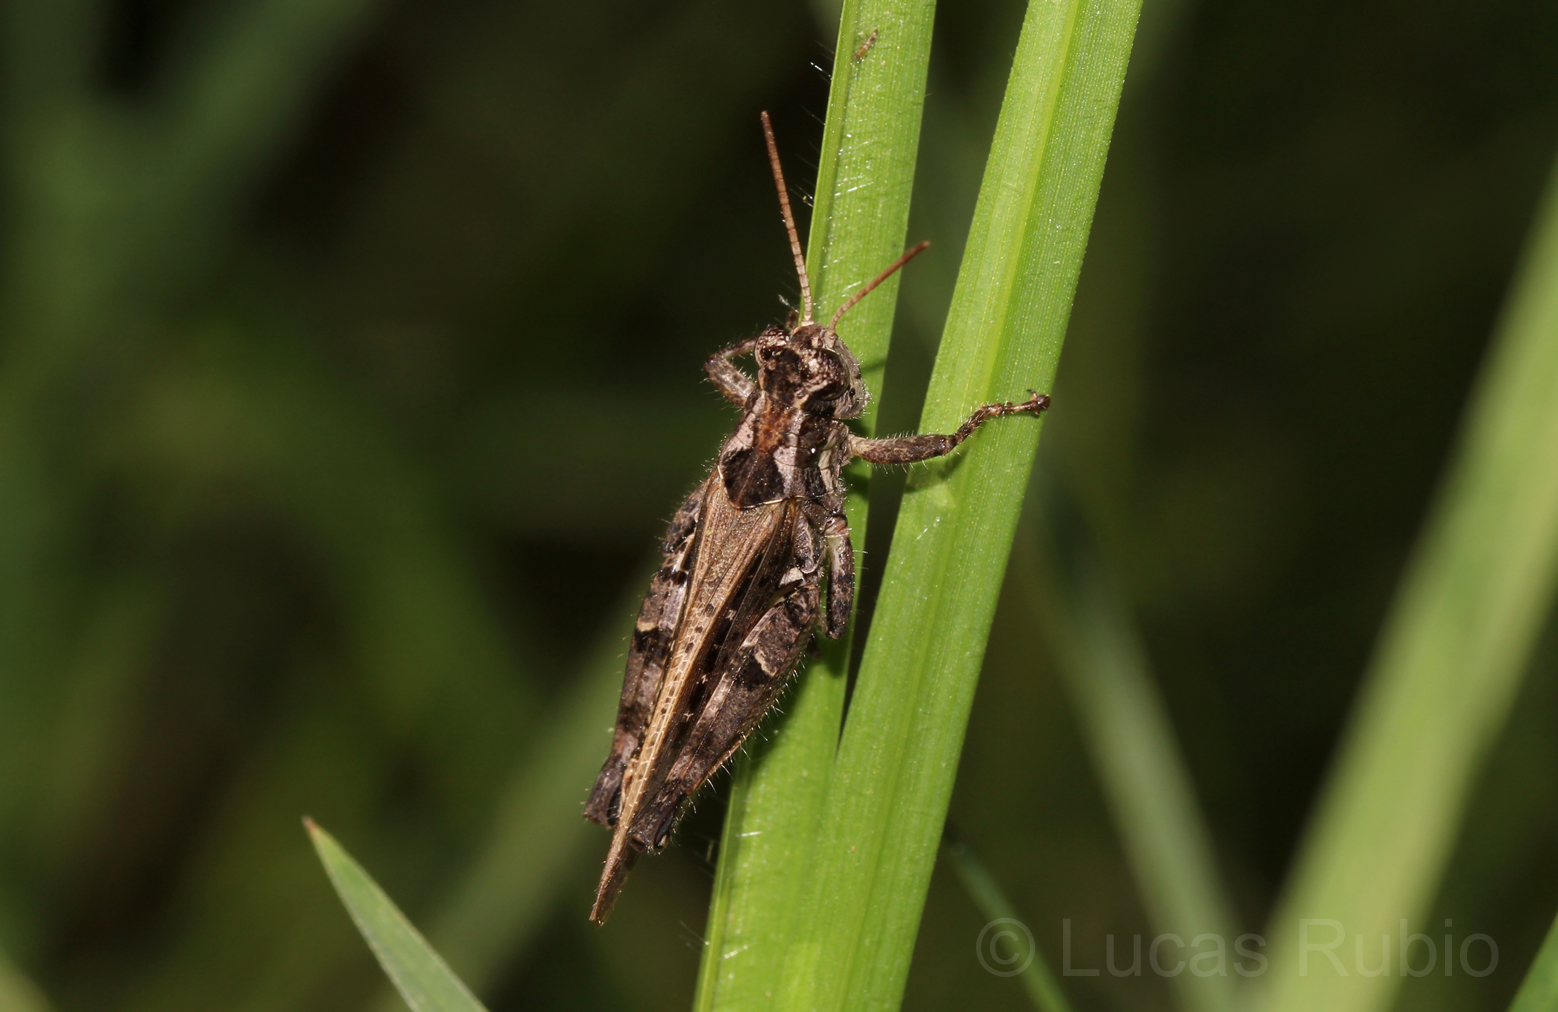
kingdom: Animalia
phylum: Arthropoda
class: Insecta
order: Orthoptera
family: Acrididae
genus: Baeacris
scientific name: Baeacris
